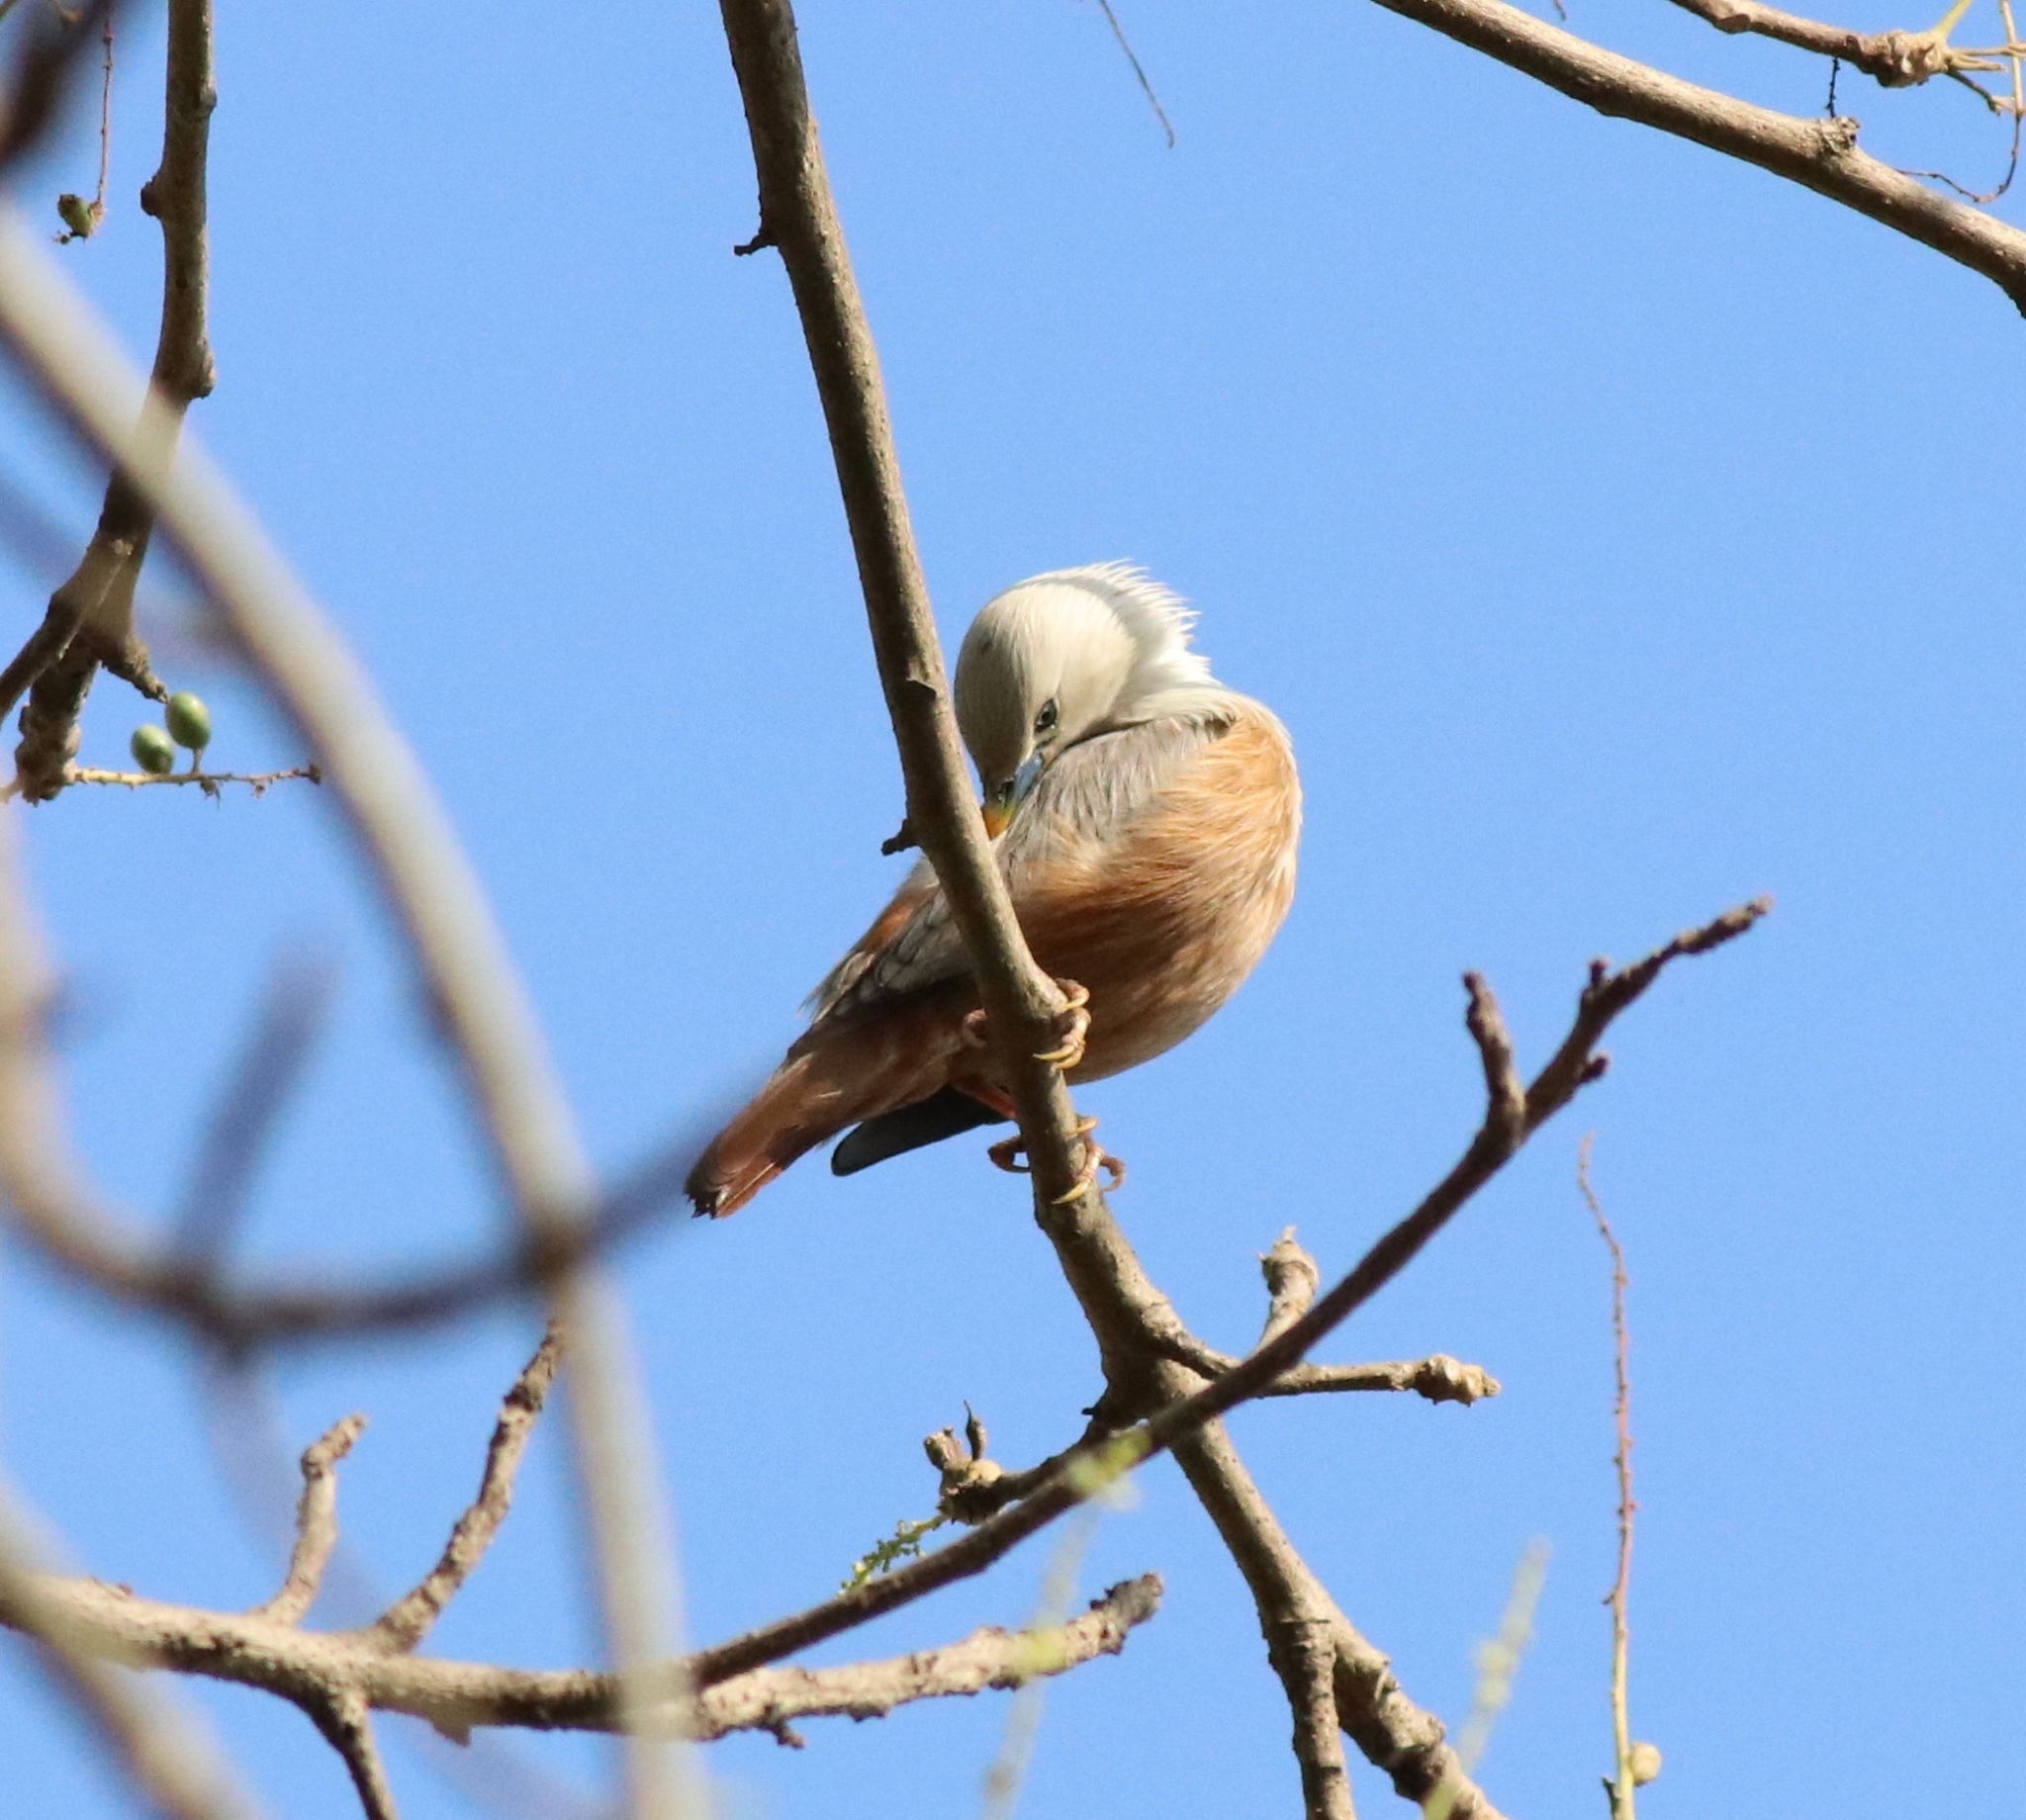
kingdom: Animalia
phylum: Chordata
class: Aves
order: Passeriformes
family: Sturnidae
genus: Sturnia
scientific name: Sturnia blythii
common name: Malabar starling
